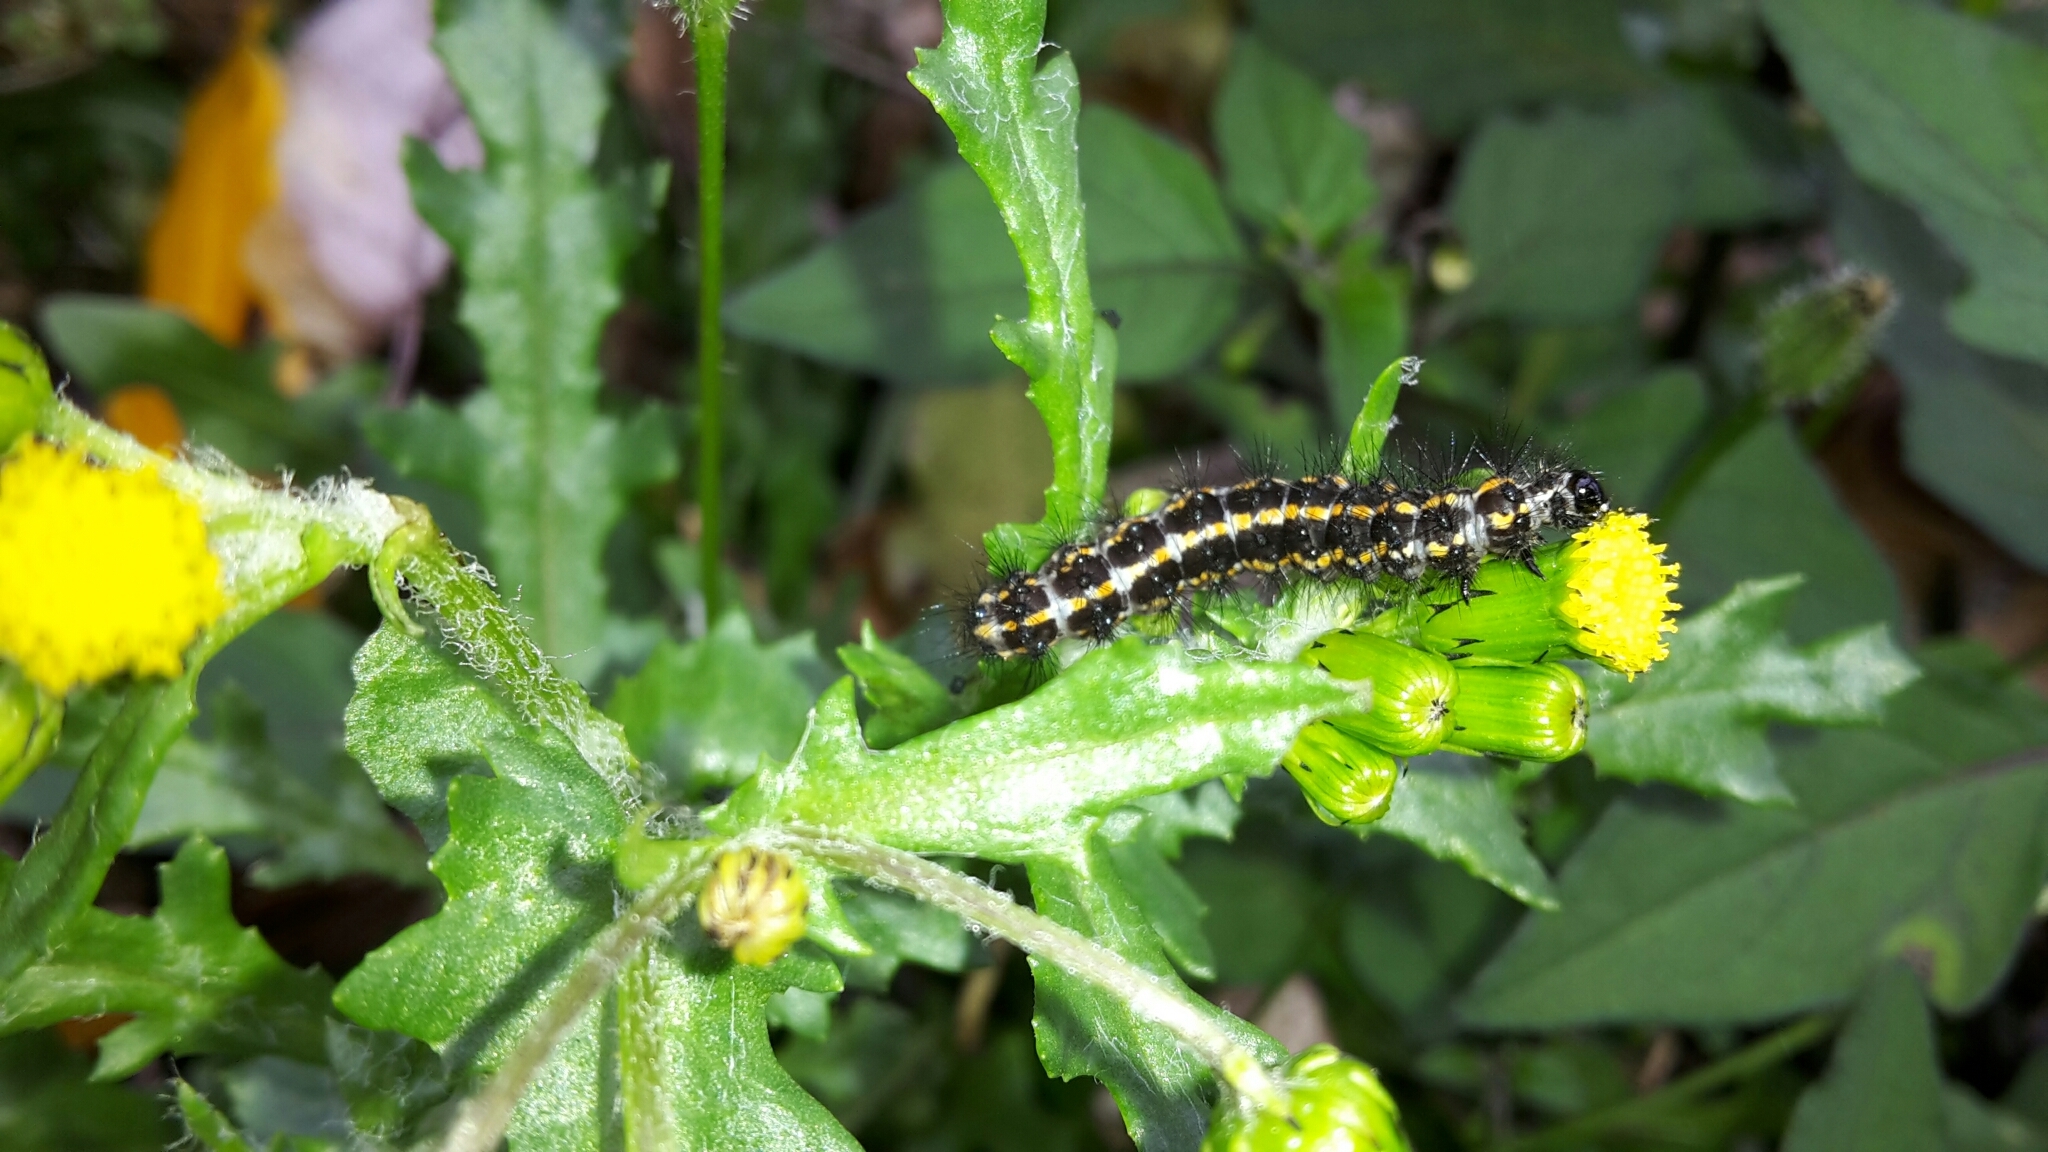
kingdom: Animalia
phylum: Arthropoda
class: Insecta
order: Lepidoptera
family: Erebidae
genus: Nyctemera
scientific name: Nyctemera annulatum
